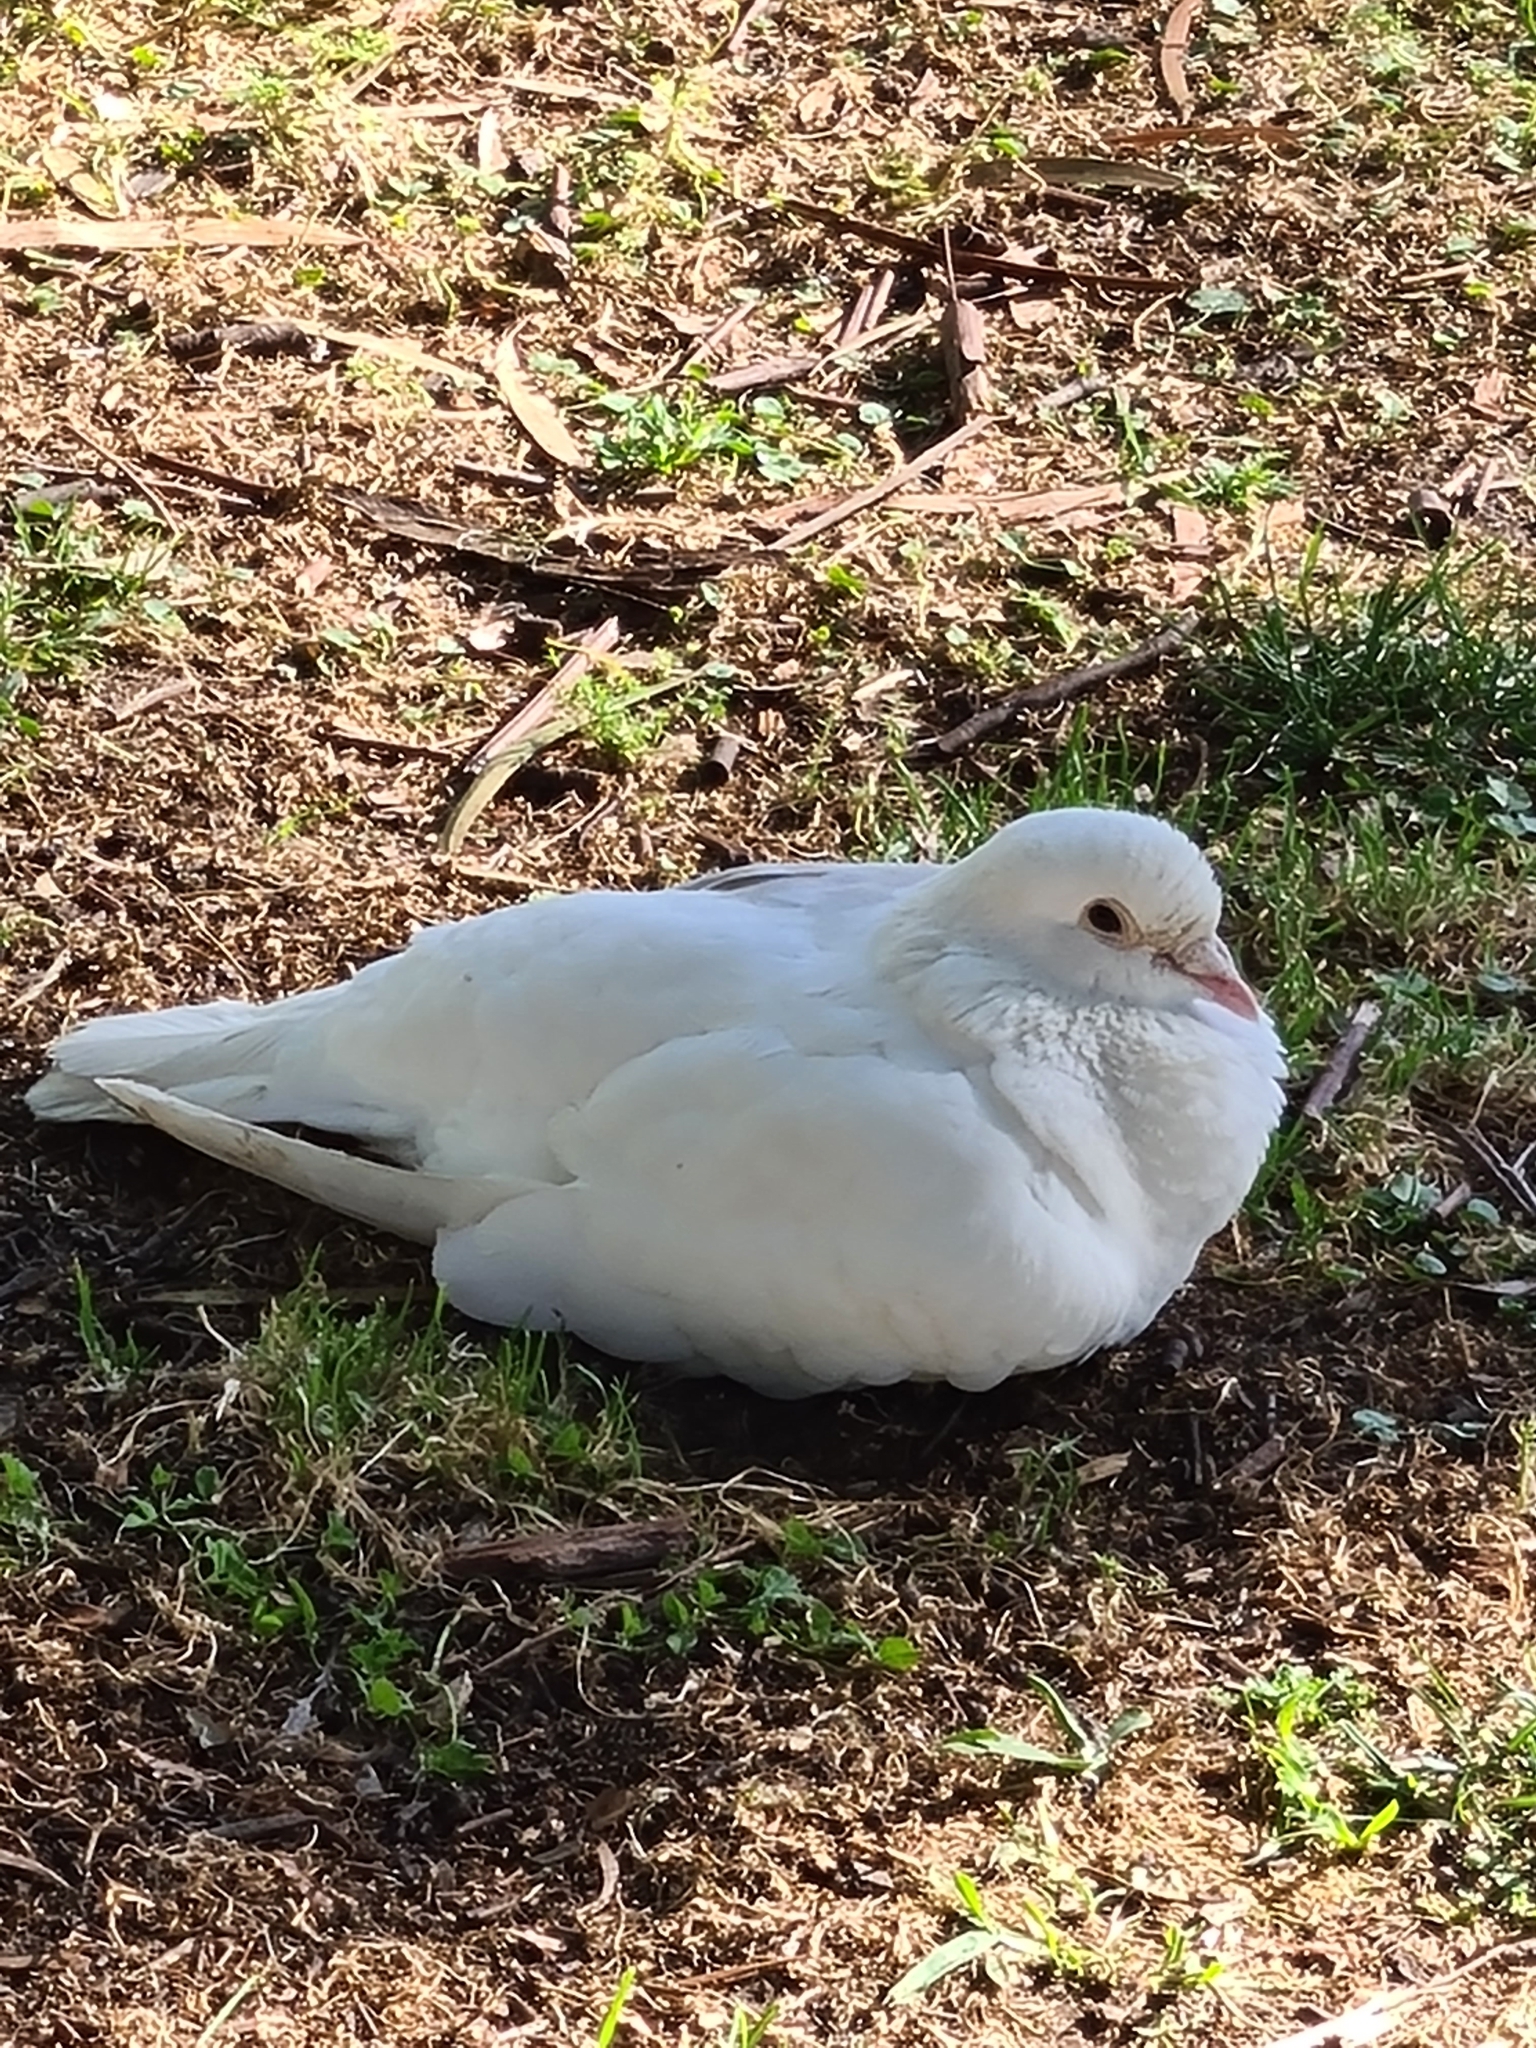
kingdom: Animalia
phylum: Chordata
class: Aves
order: Columbiformes
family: Columbidae
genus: Columba
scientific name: Columba livia
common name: Rock pigeon
